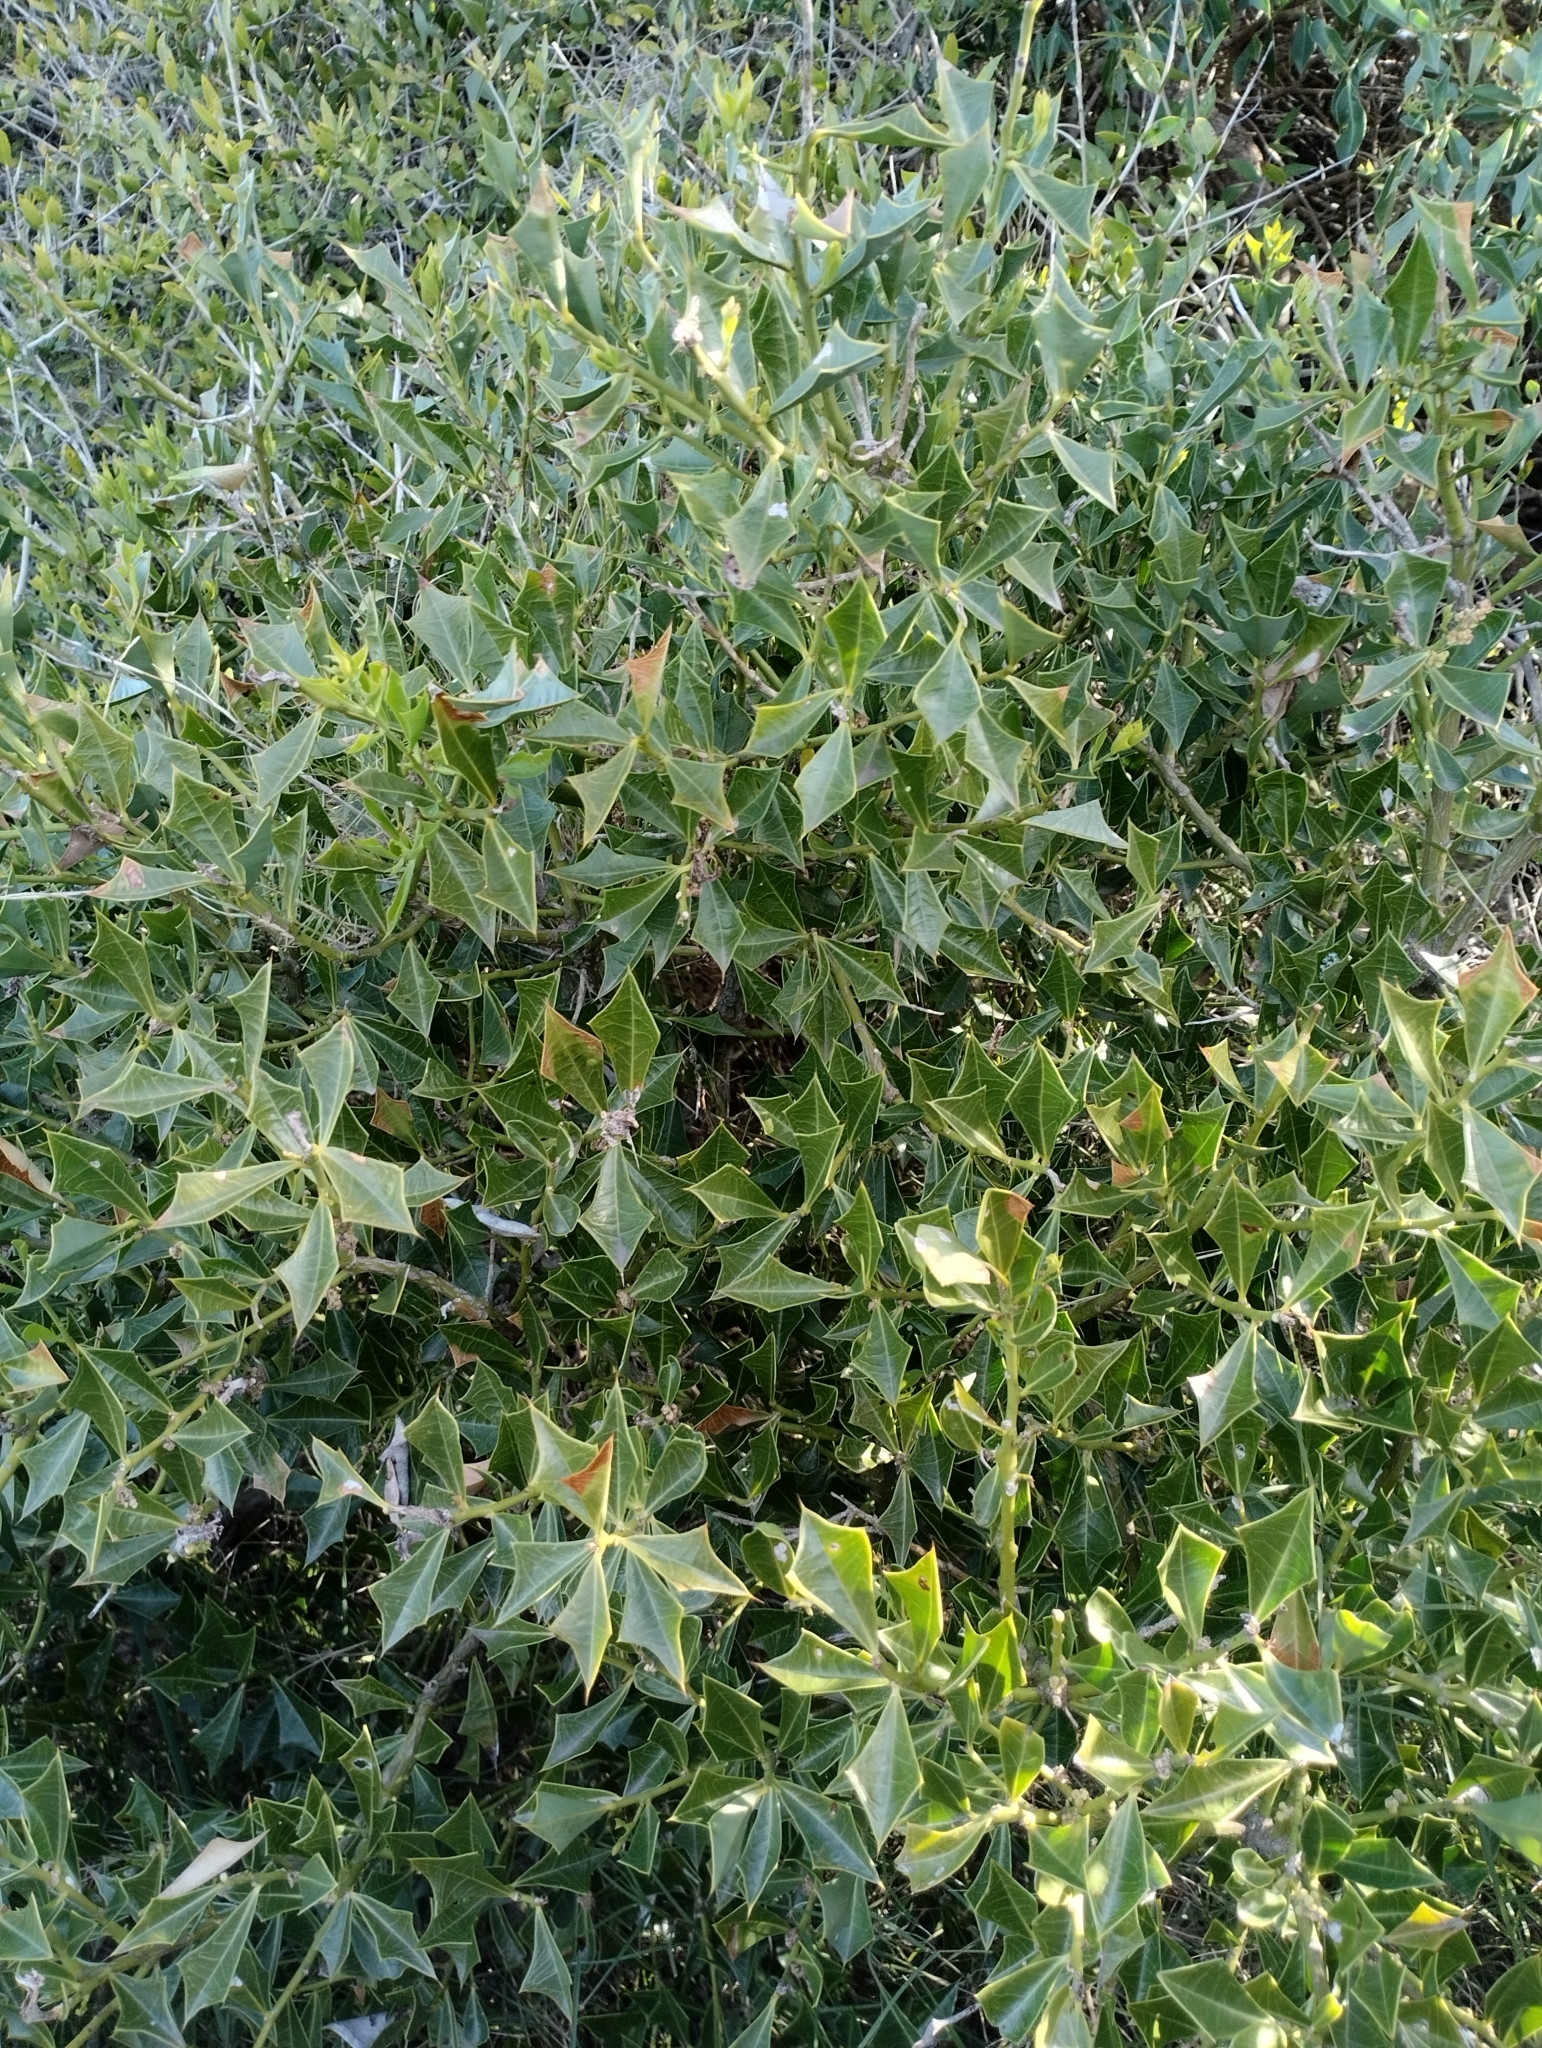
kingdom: Plantae
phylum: Tracheophyta
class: Magnoliopsida
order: Santalales
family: Cervantesiaceae
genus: Jodina
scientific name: Jodina rhombifolia
